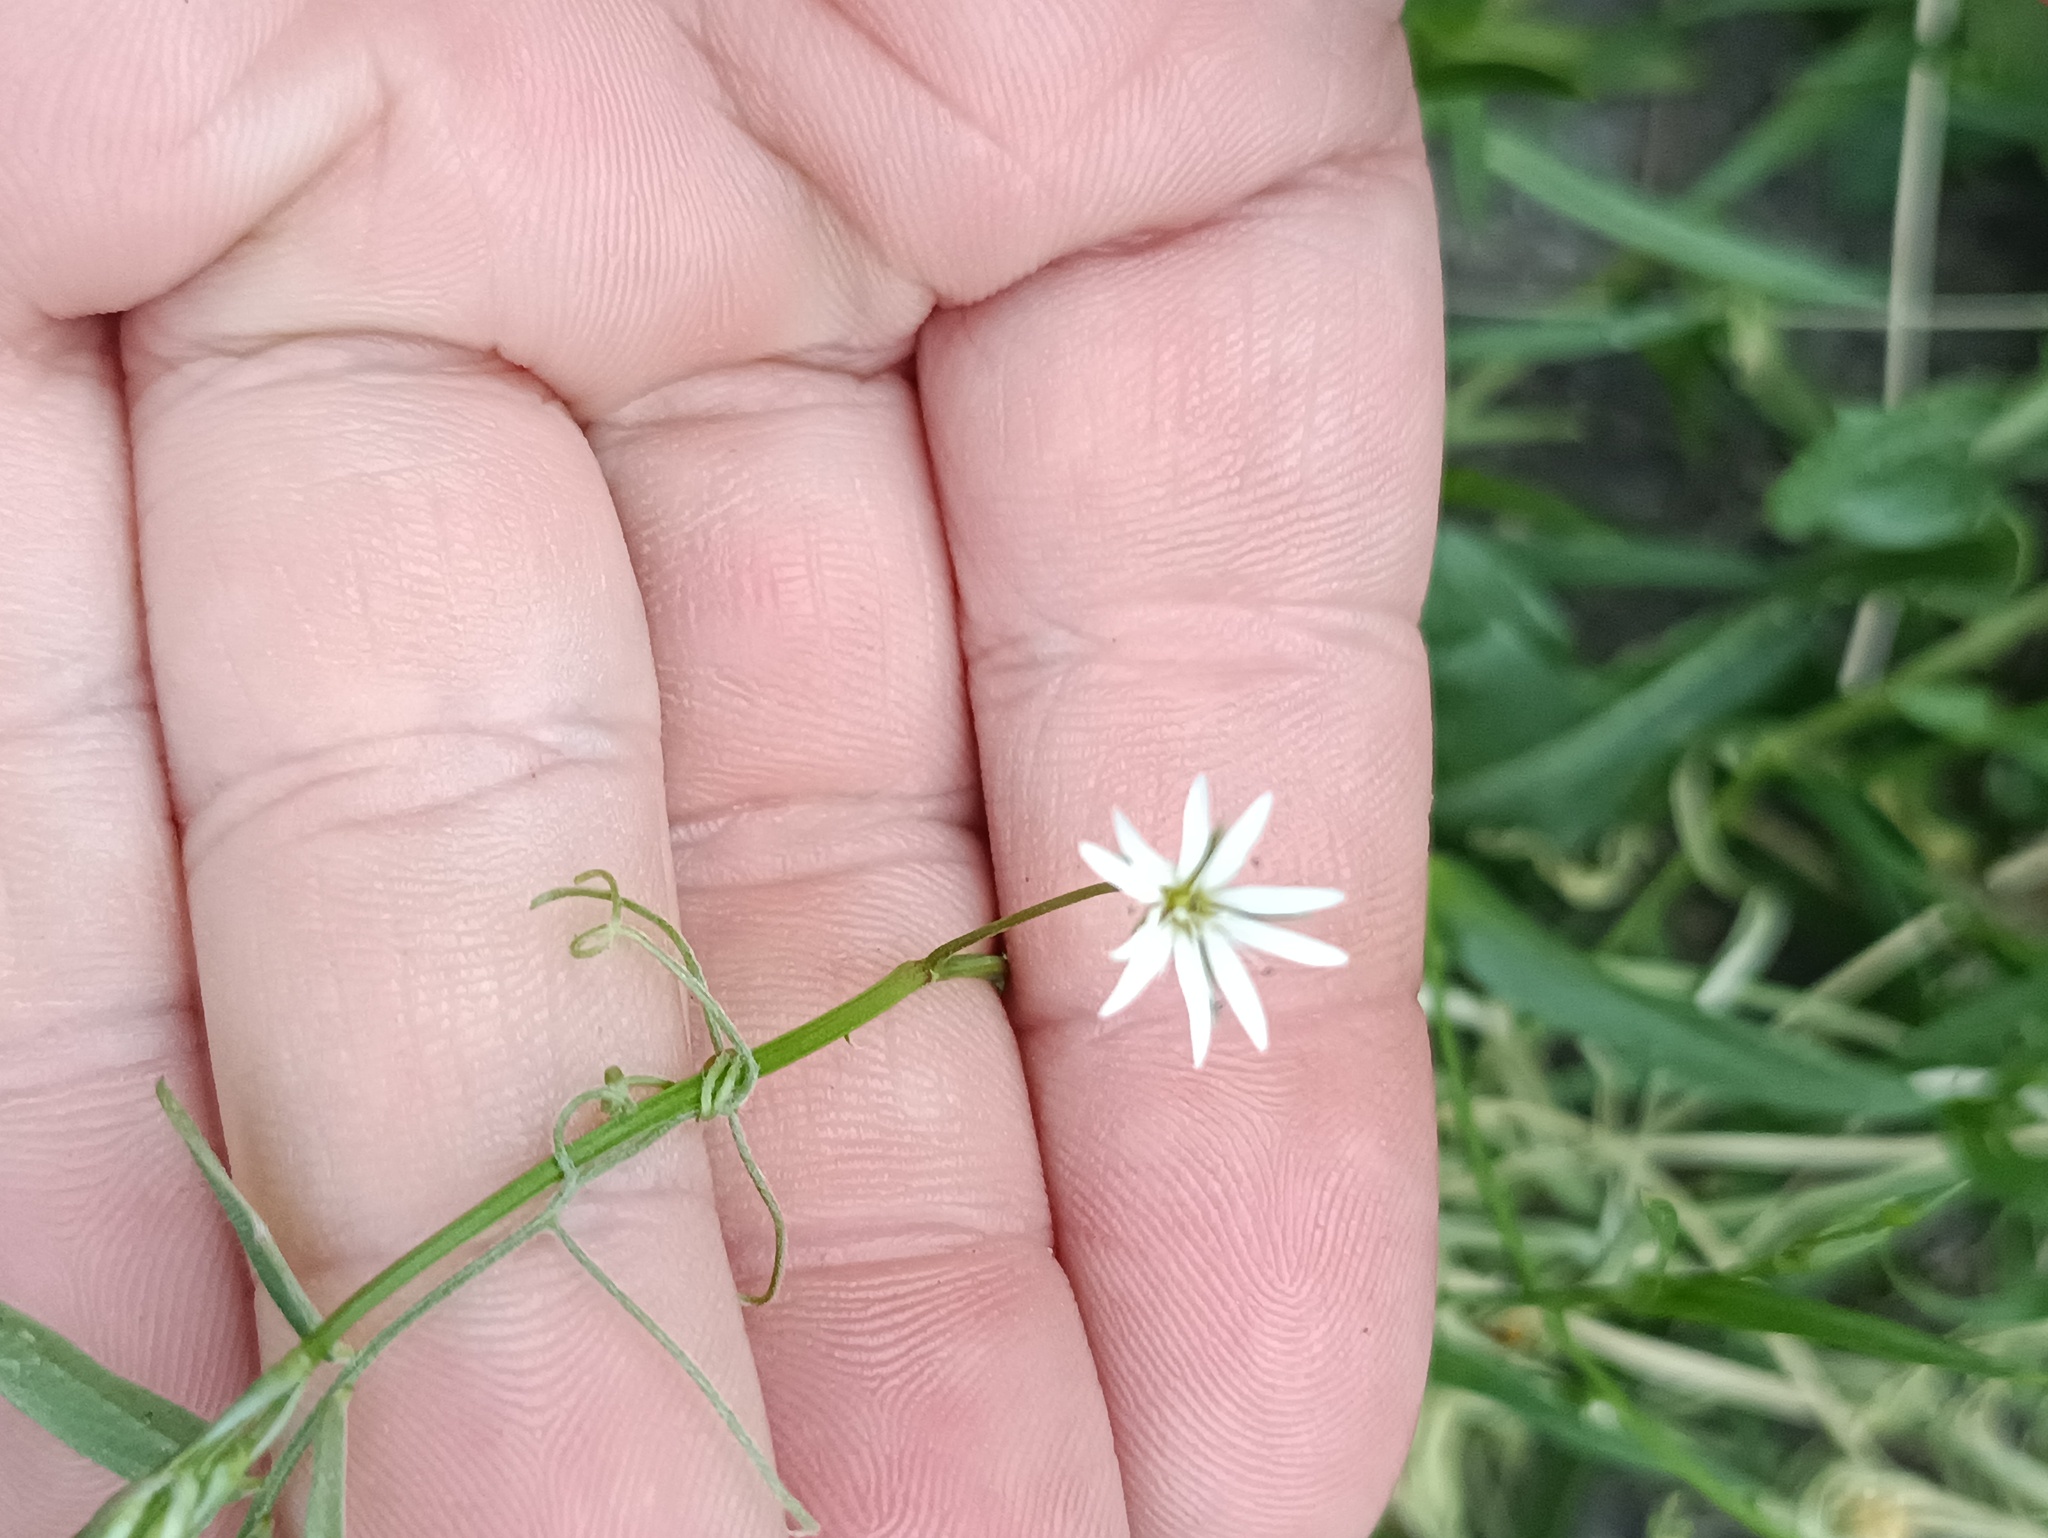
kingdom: Plantae
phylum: Tracheophyta
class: Magnoliopsida
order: Caryophyllales
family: Caryophyllaceae
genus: Stellaria
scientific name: Stellaria graminea
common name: Grass-like starwort
